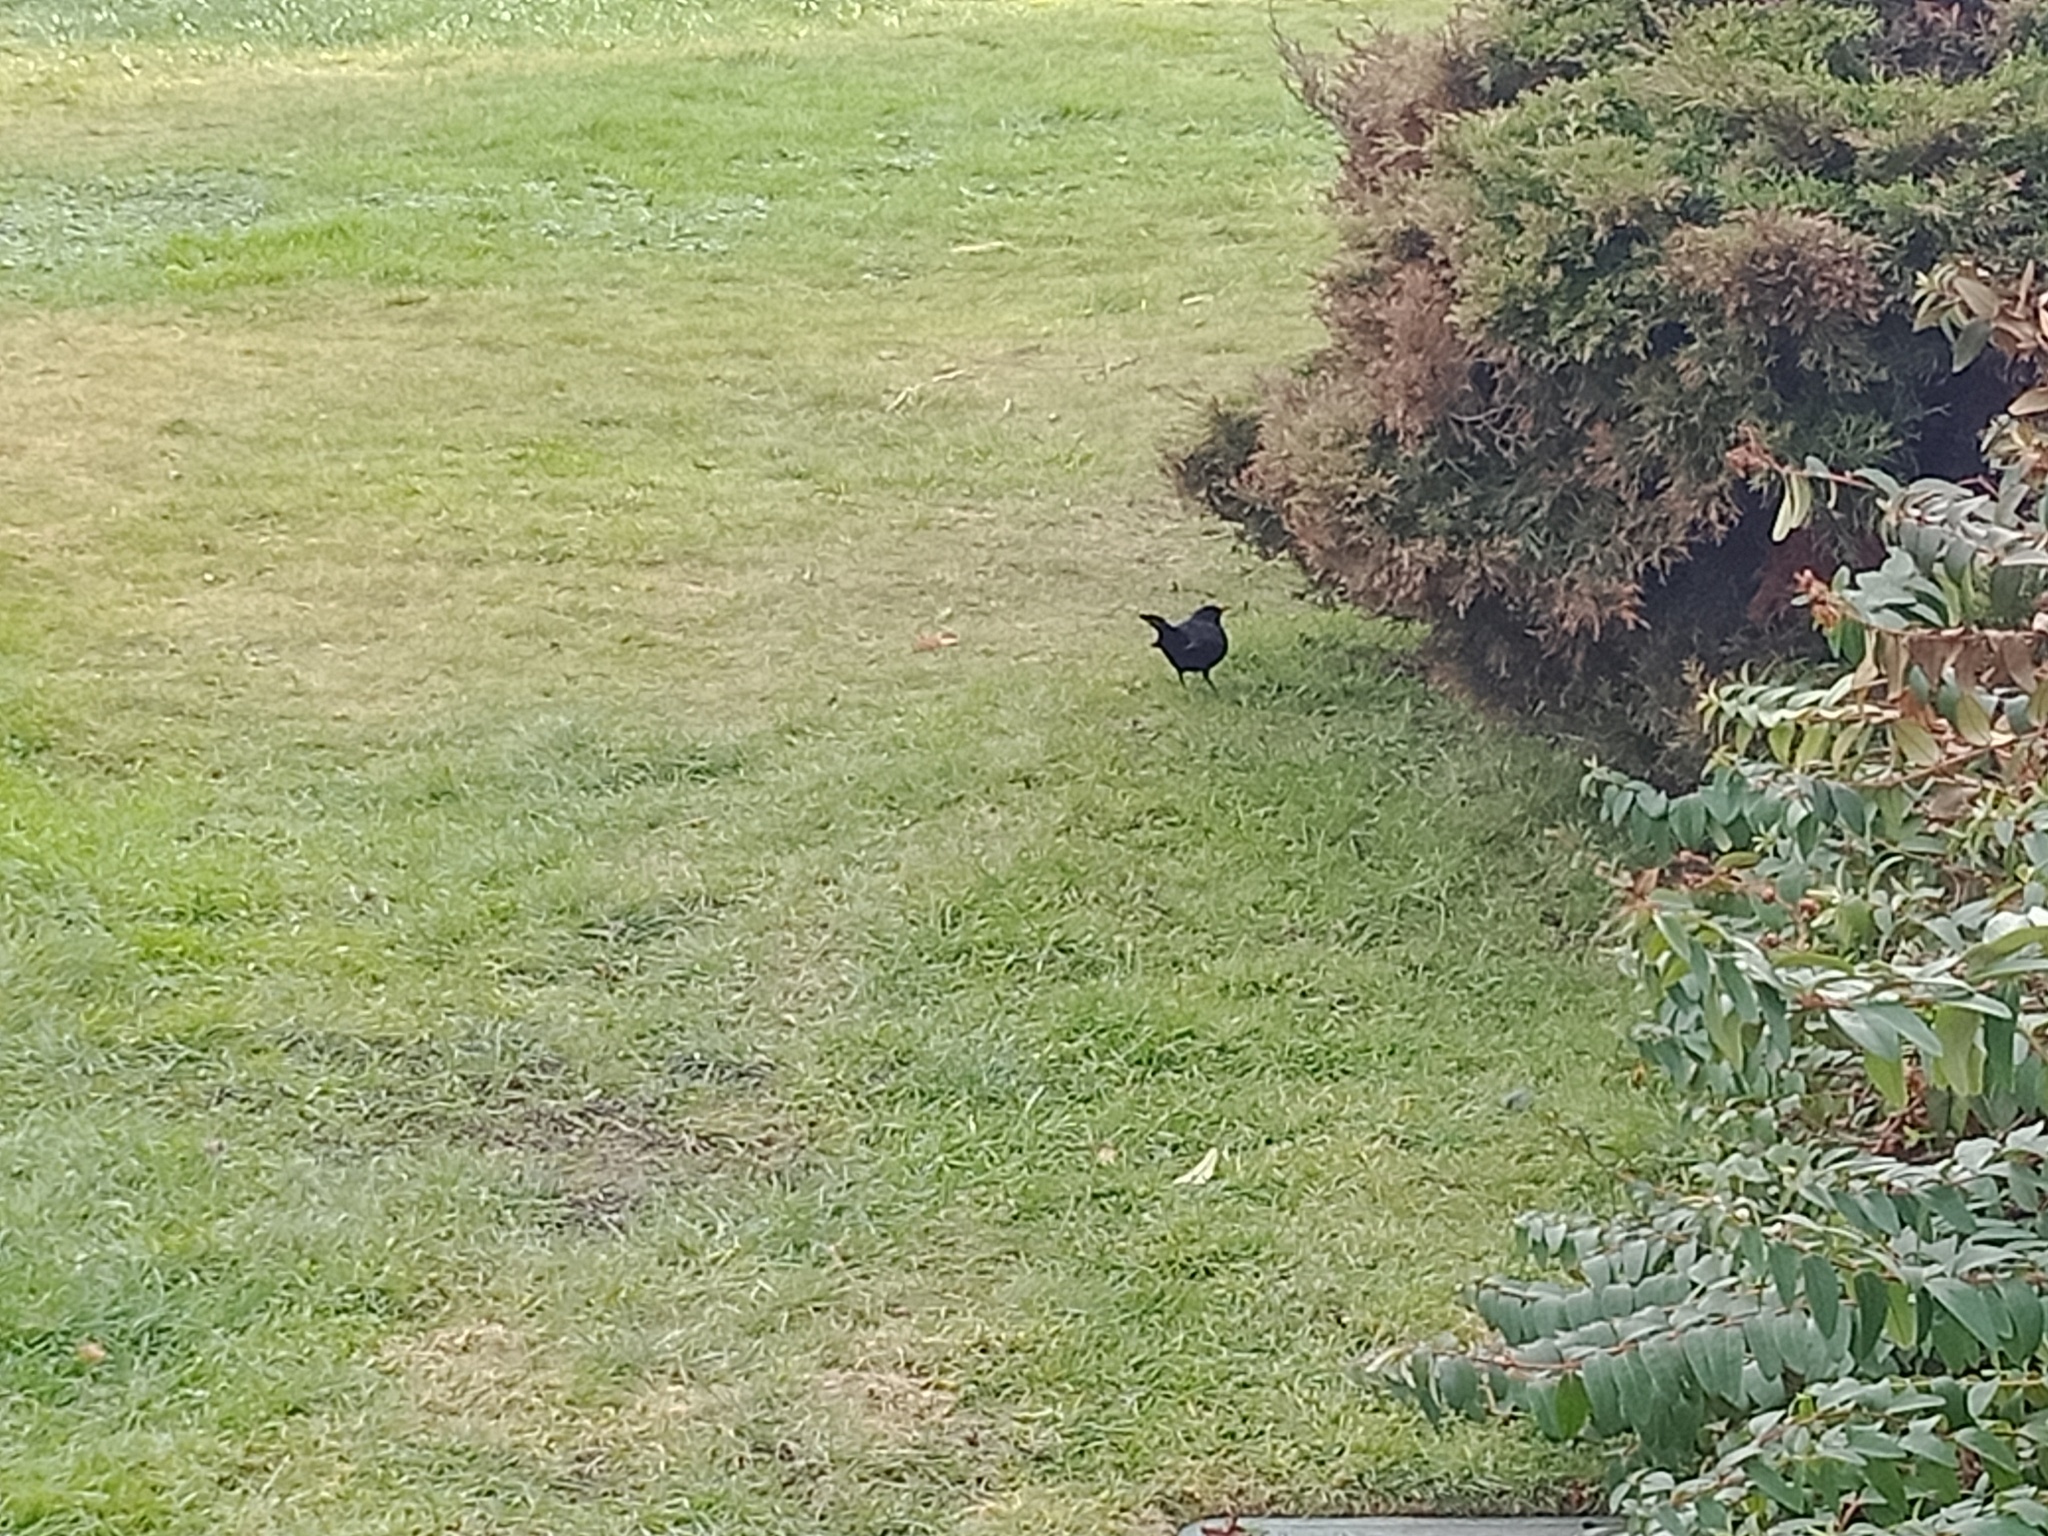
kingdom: Animalia
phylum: Chordata
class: Aves
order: Passeriformes
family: Turdidae
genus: Turdus
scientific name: Turdus merula
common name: Common blackbird
